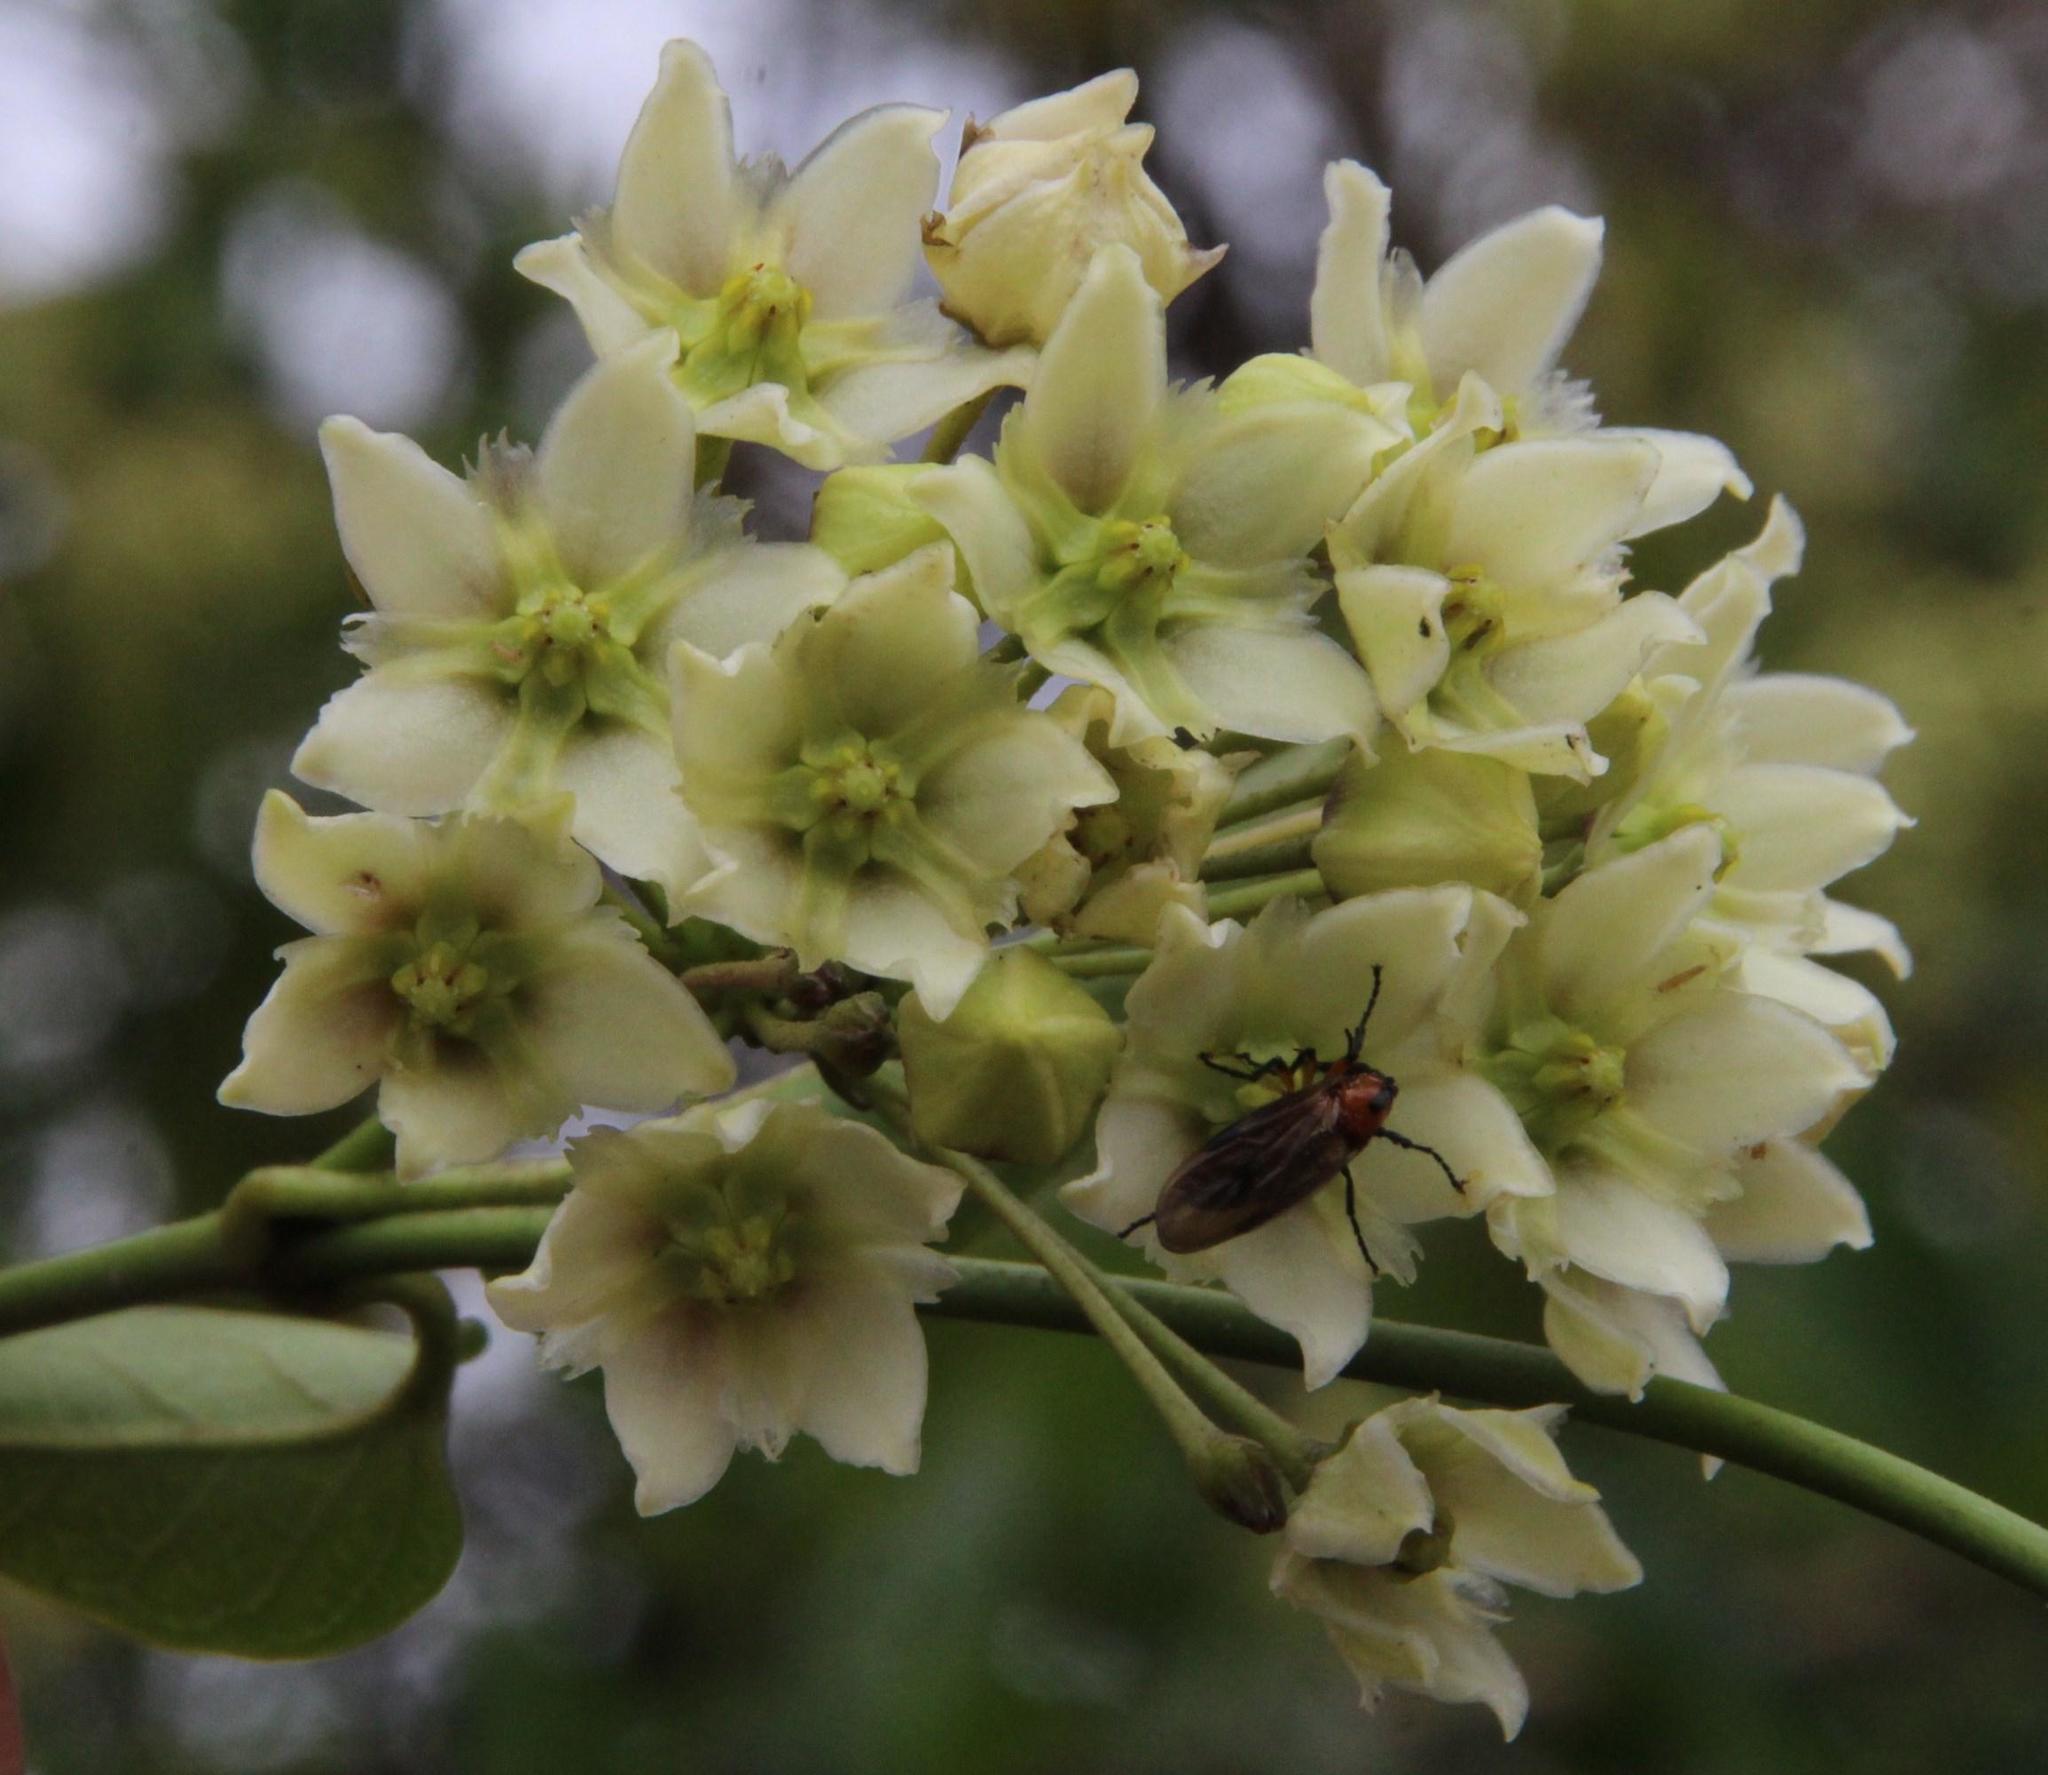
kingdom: Plantae
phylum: Tracheophyta
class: Magnoliopsida
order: Gentianales
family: Apocynaceae
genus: Jobinia
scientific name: Jobinia tarmensis
